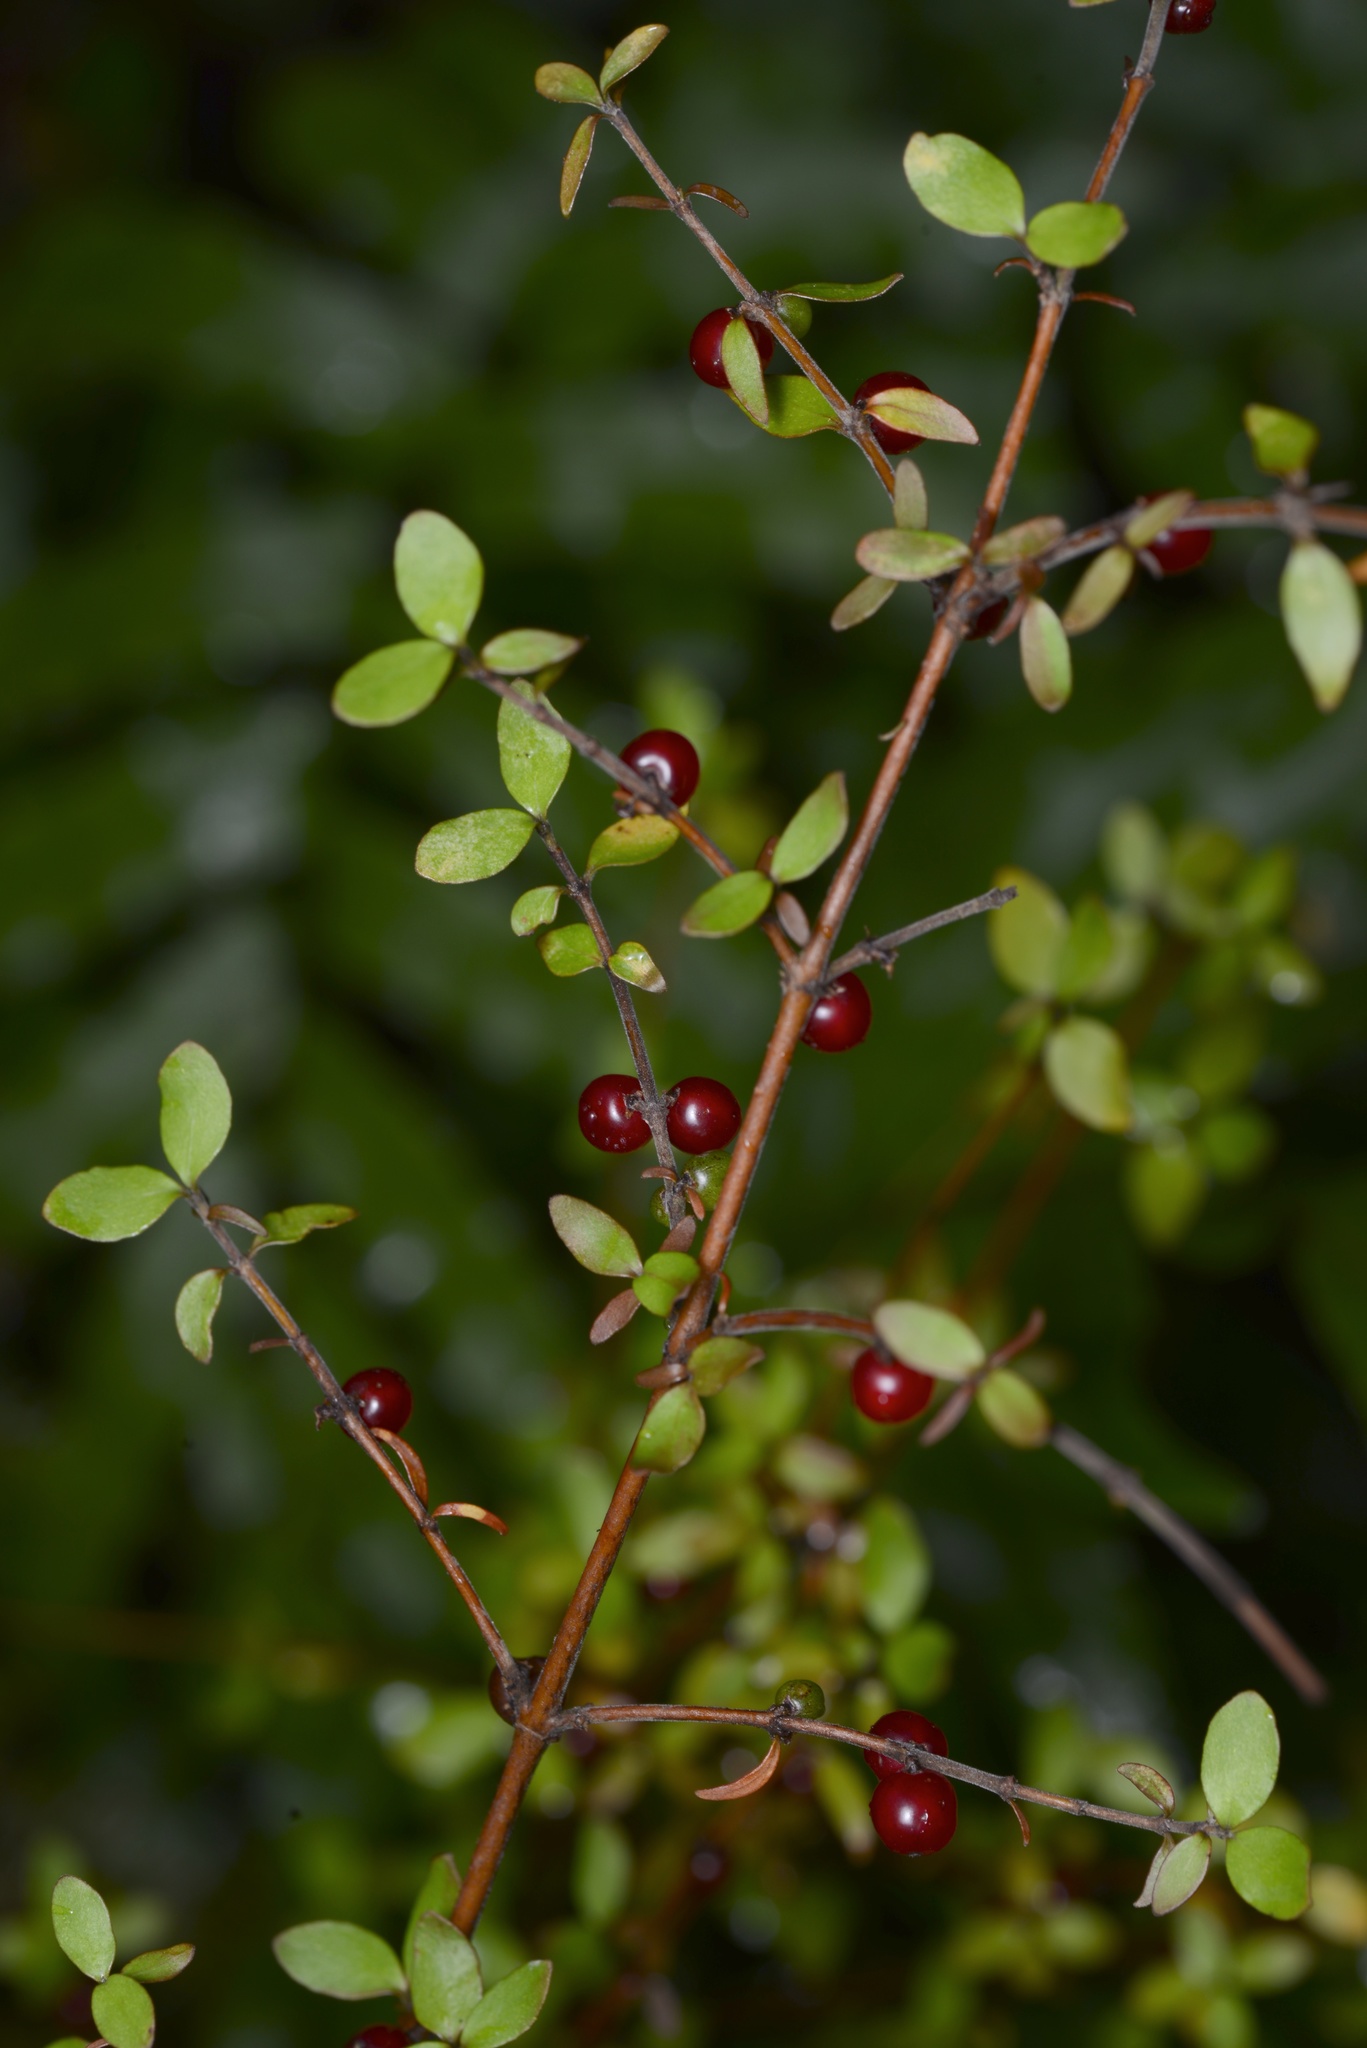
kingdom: Plantae
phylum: Tracheophyta
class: Magnoliopsida
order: Gentianales
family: Rubiaceae
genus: Coprosma
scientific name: Coprosma rhamnoides
